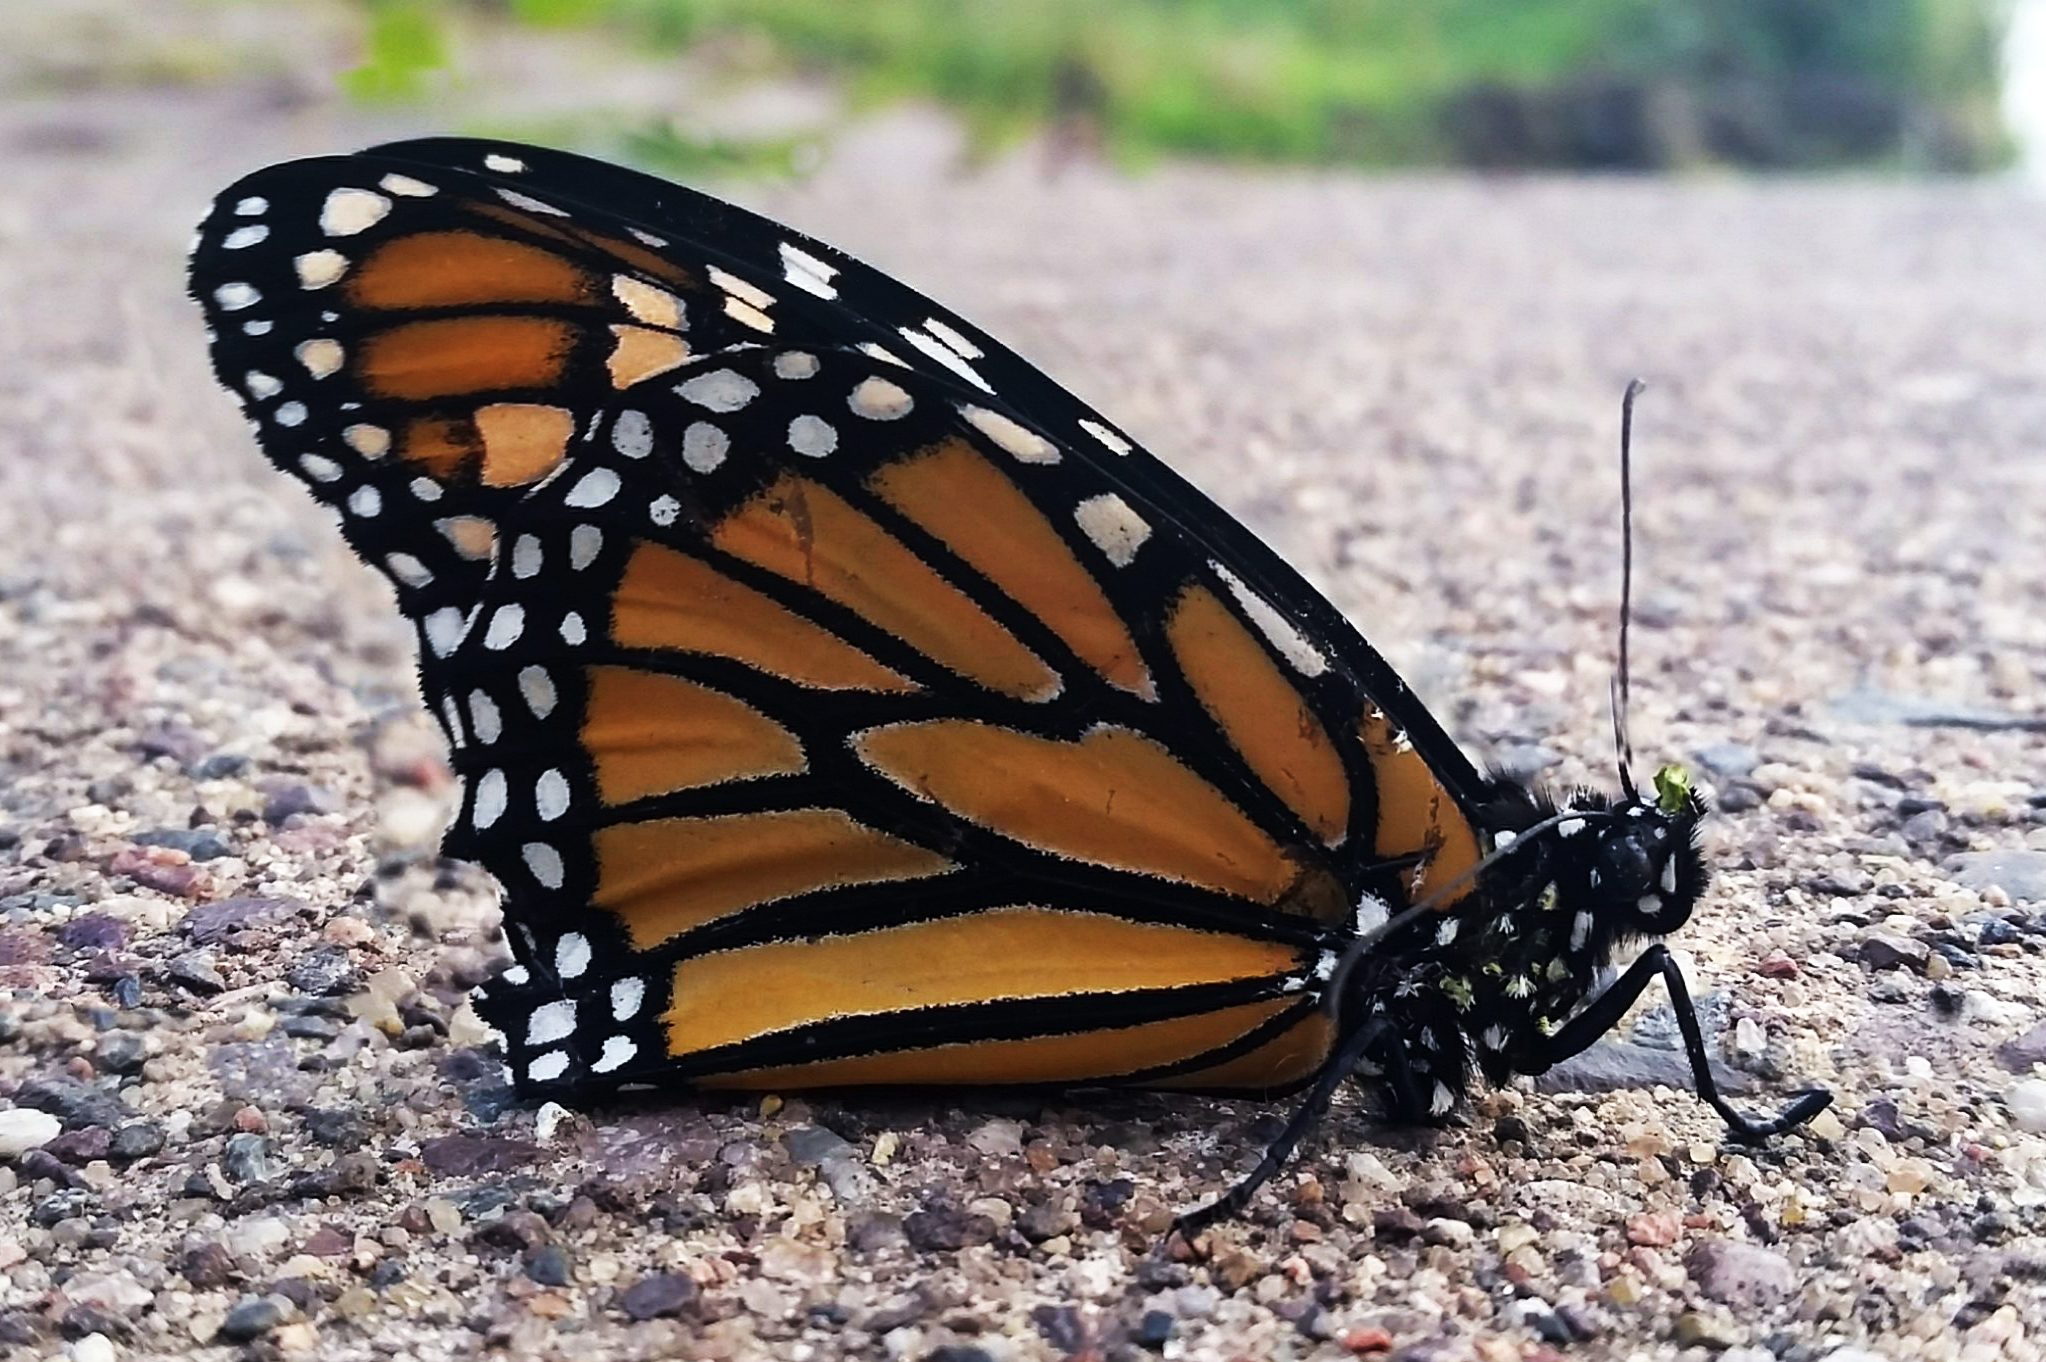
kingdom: Animalia
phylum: Arthropoda
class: Insecta
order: Lepidoptera
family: Nymphalidae
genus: Danaus
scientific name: Danaus plexippus
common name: Monarch
